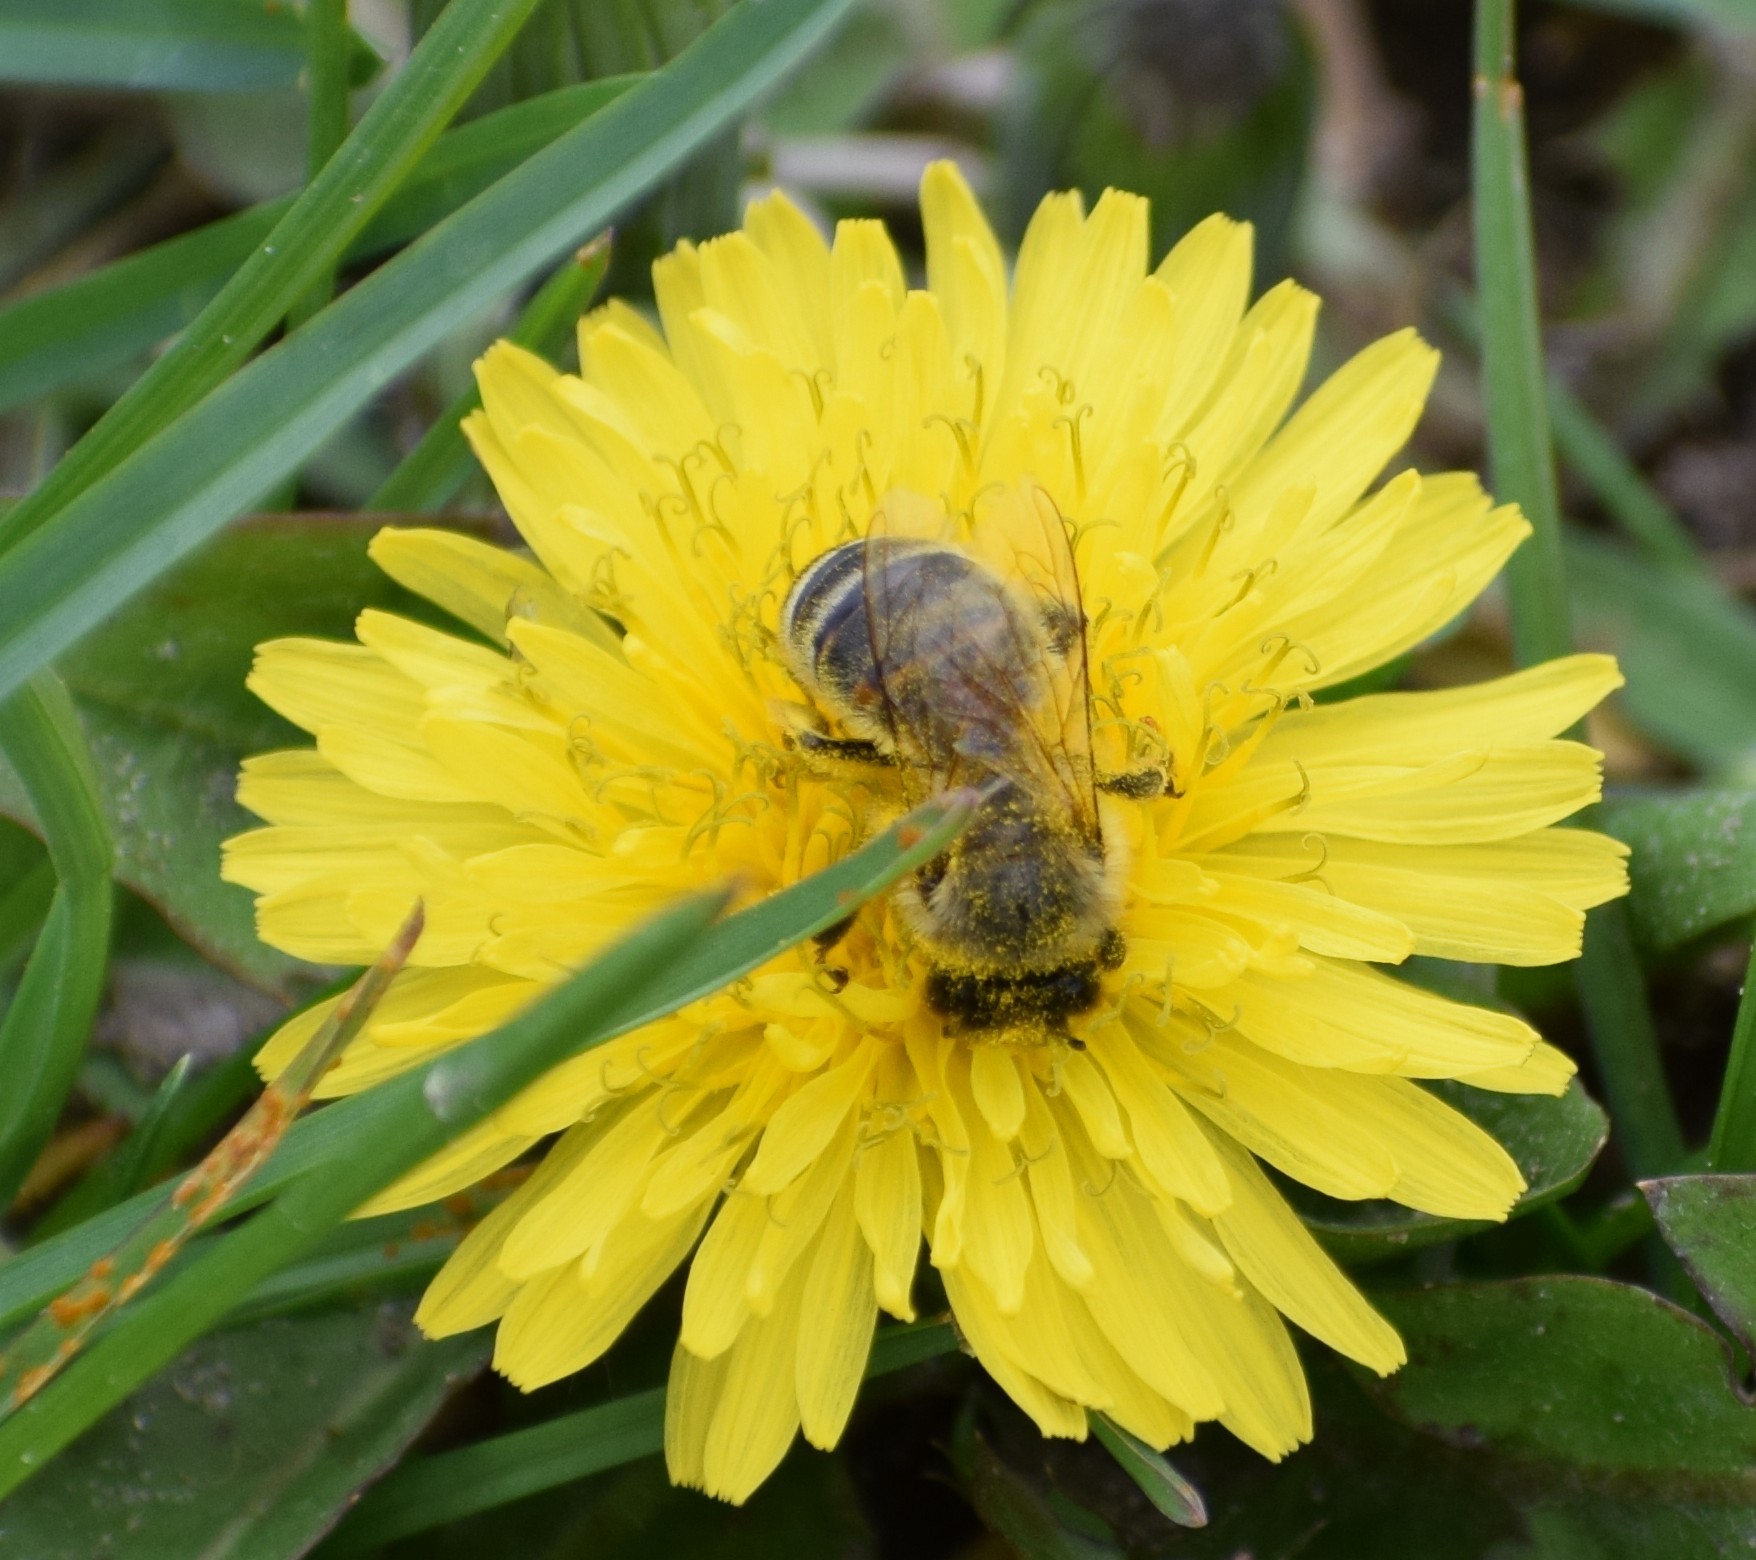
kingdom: Animalia
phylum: Arthropoda
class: Insecta
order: Hymenoptera
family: Apidae
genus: Apis
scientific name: Apis mellifera
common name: Honey bee
